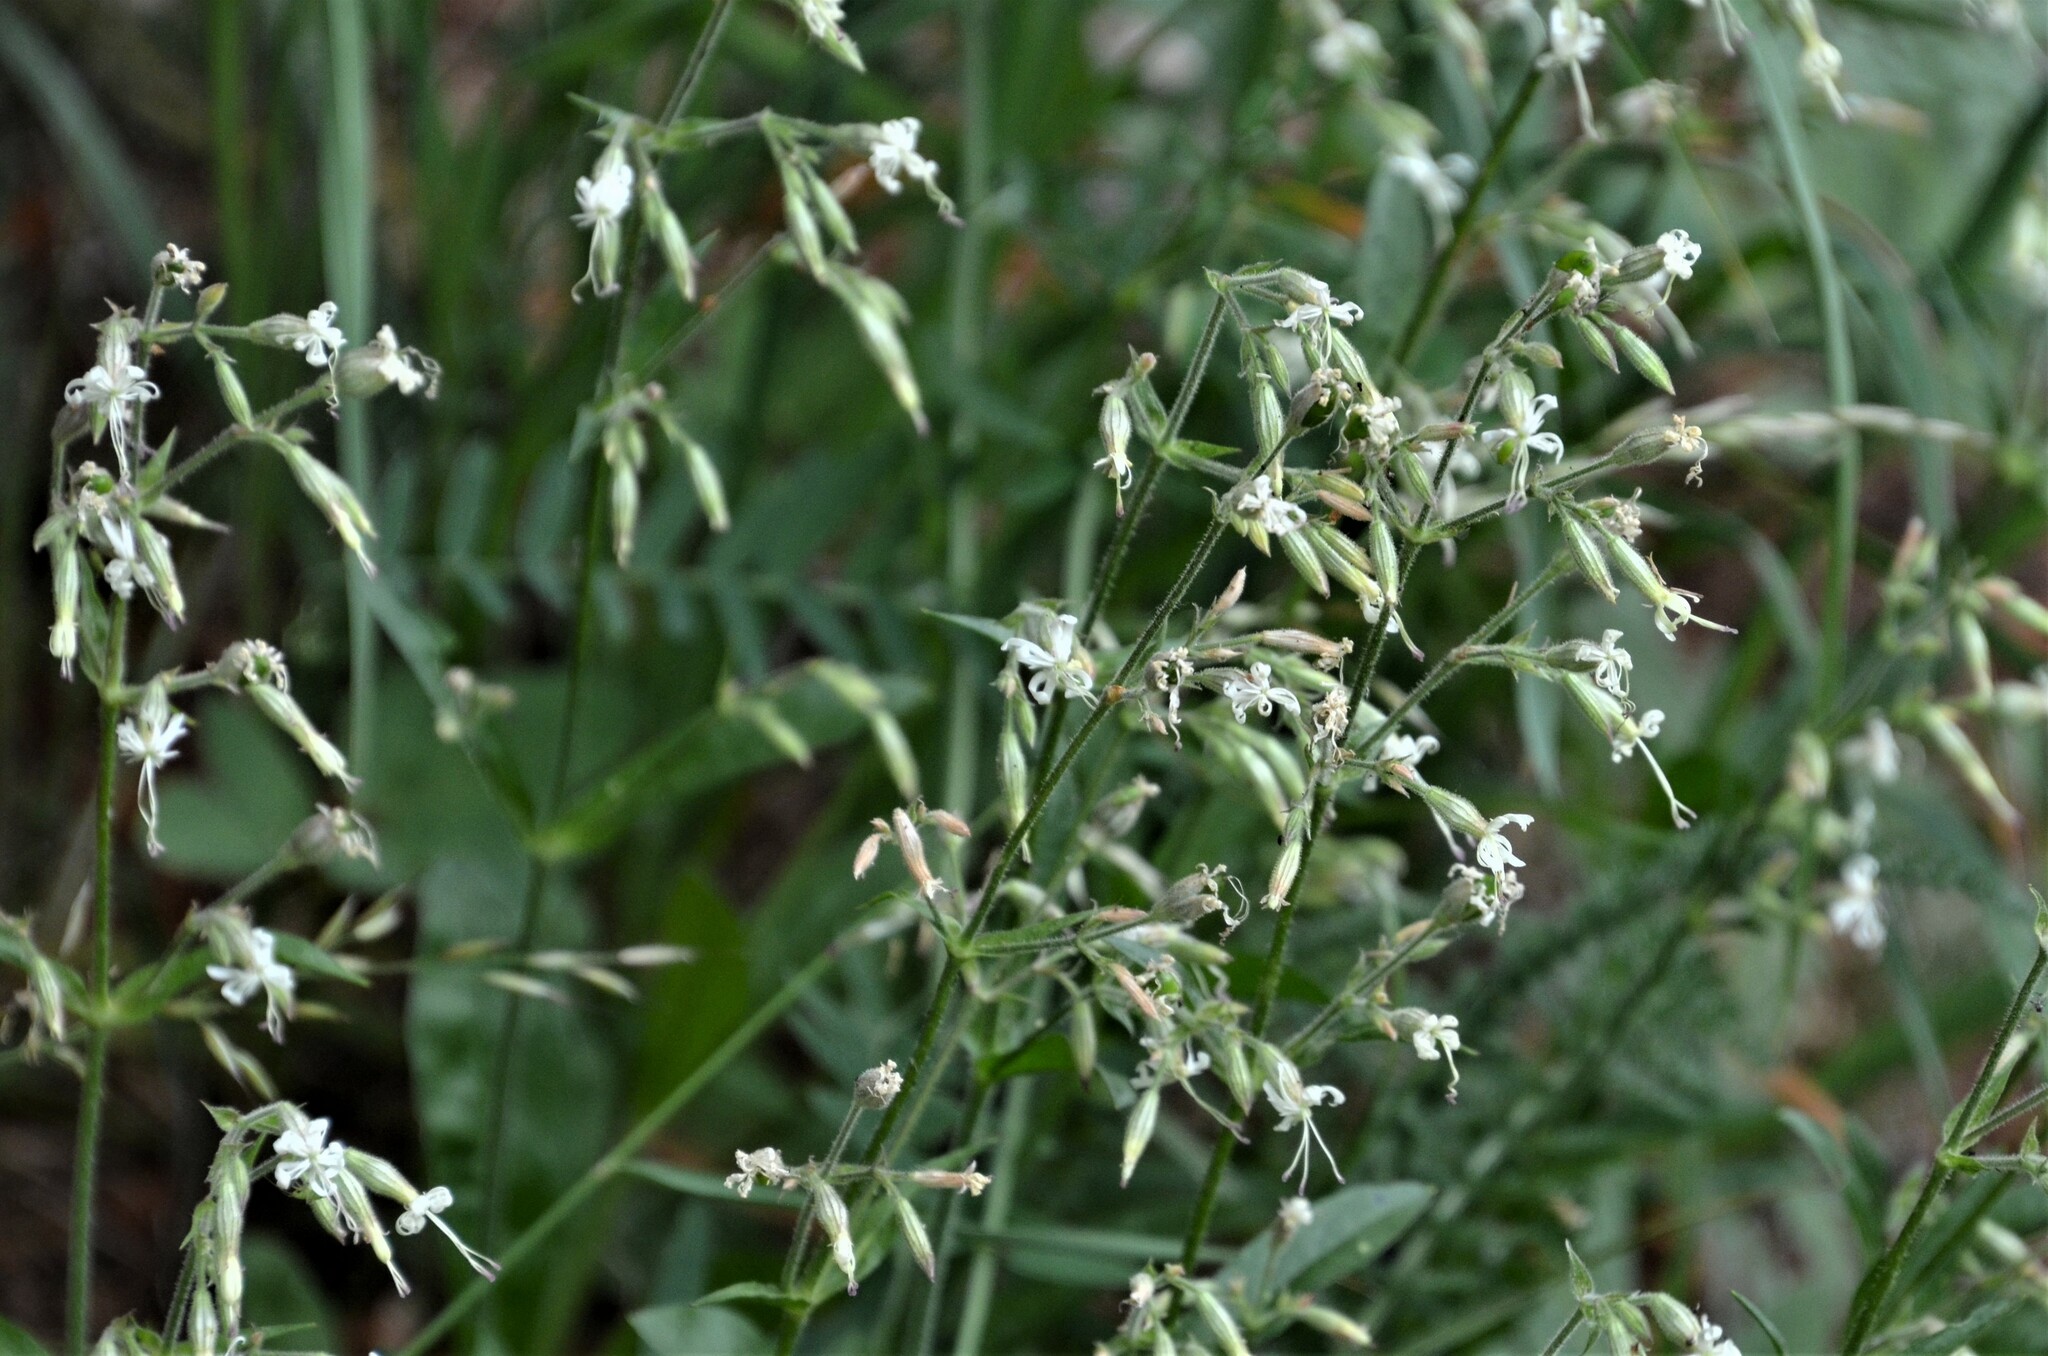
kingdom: Plantae
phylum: Tracheophyta
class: Magnoliopsida
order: Caryophyllales
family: Caryophyllaceae
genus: Silene
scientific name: Silene nutans
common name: Nottingham catchfly
